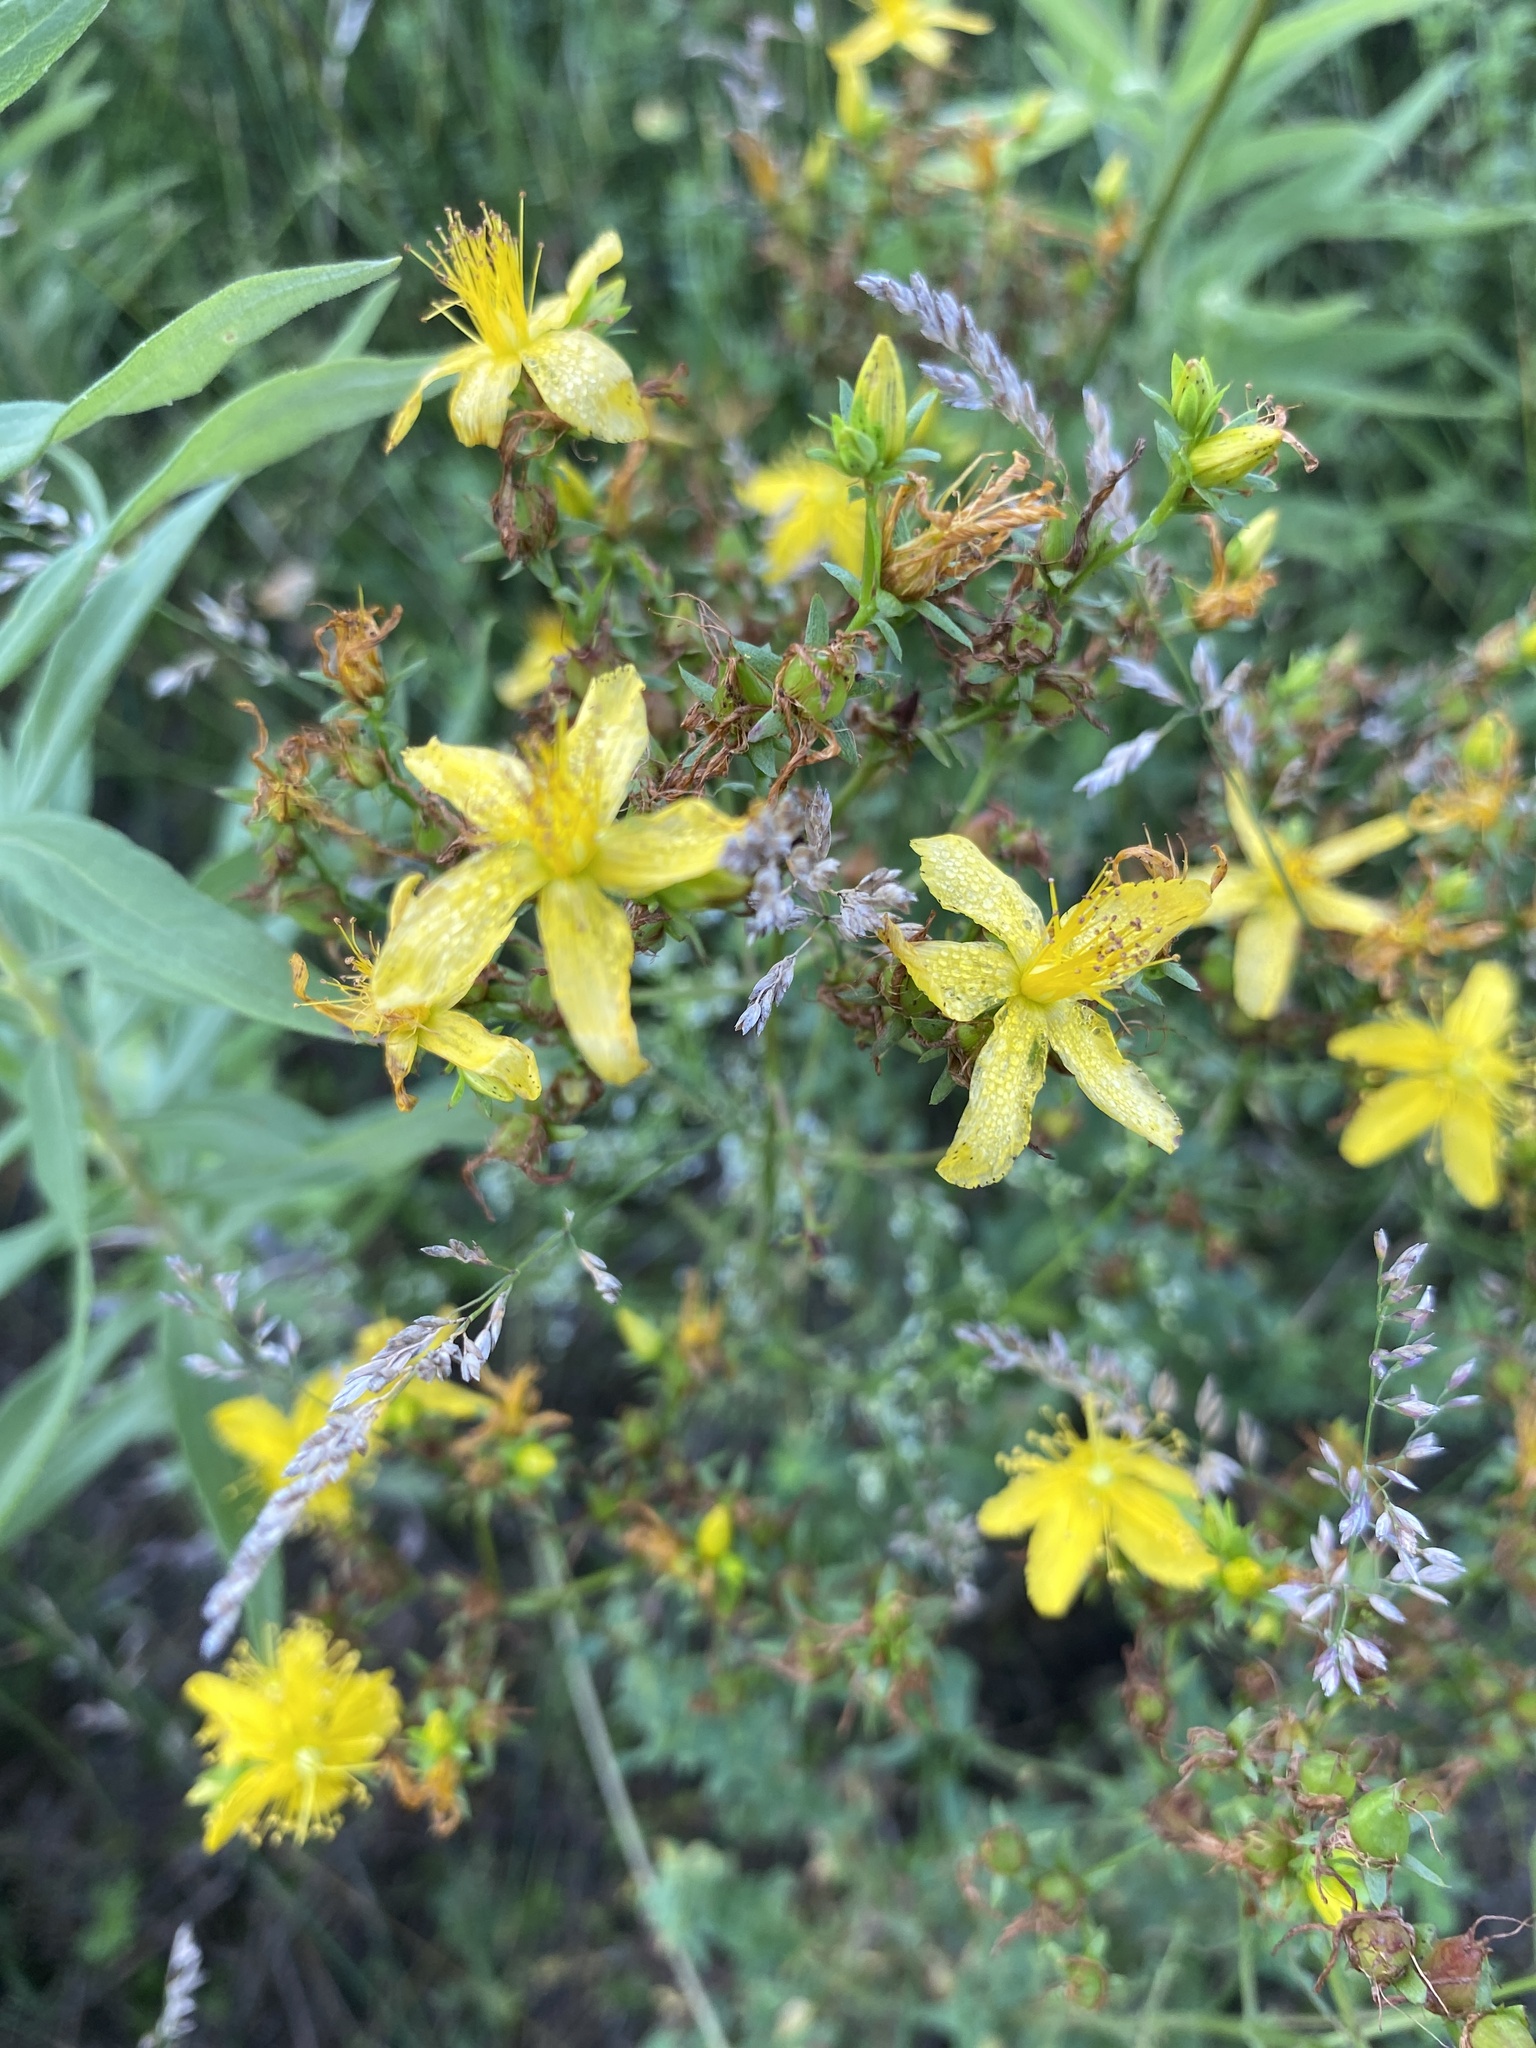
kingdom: Plantae
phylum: Tracheophyta
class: Magnoliopsida
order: Malpighiales
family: Hypericaceae
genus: Hypericum
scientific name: Hypericum perforatum
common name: Common st. johnswort
